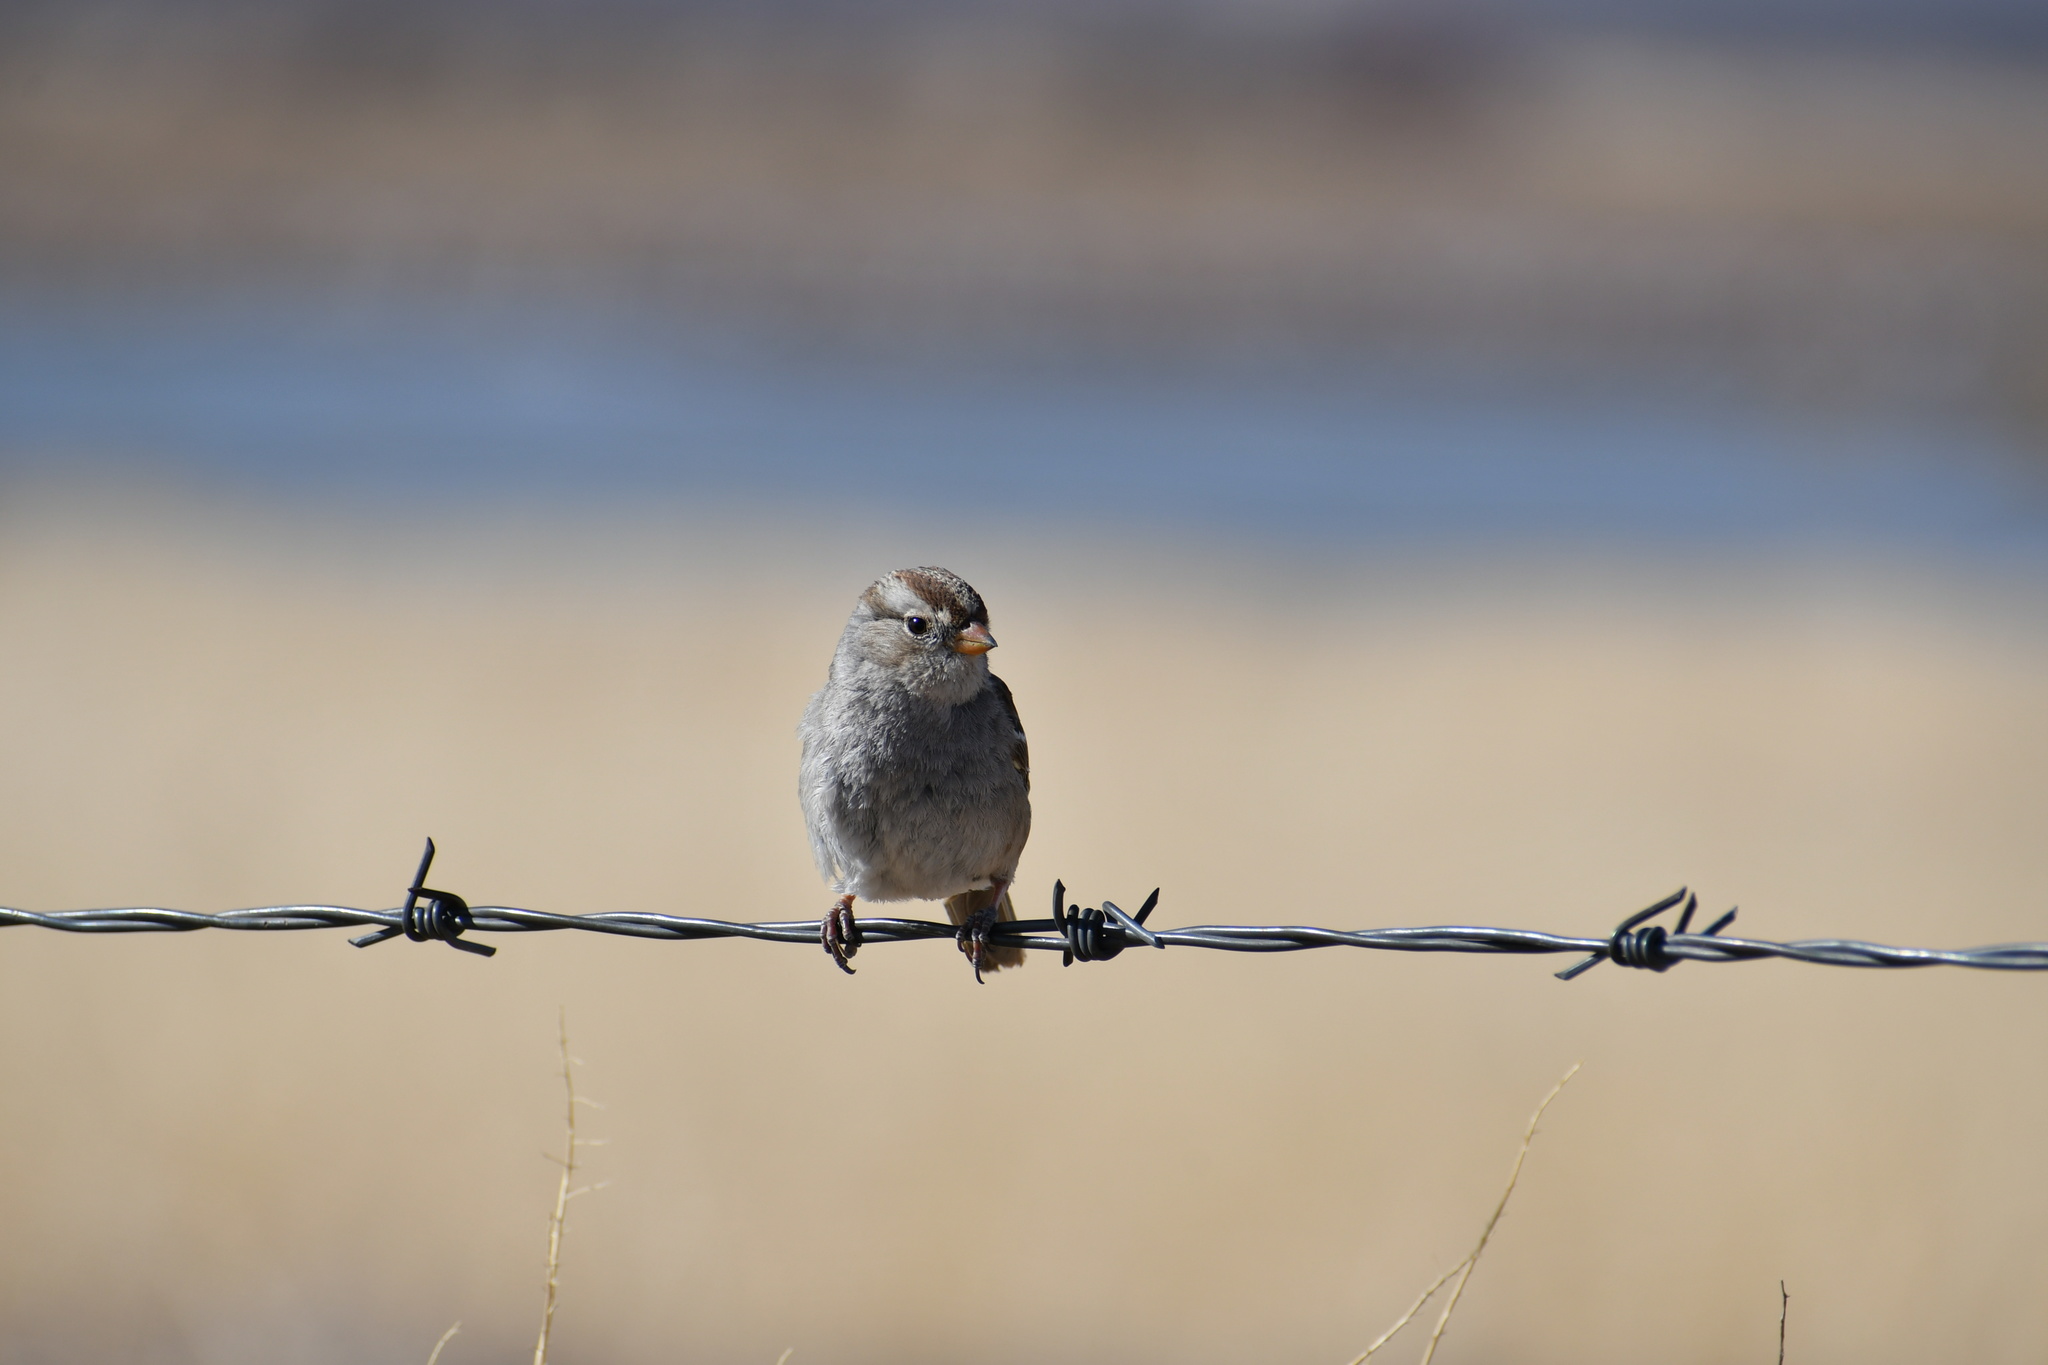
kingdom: Animalia
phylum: Chordata
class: Aves
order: Passeriformes
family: Passerellidae
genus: Zonotrichia
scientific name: Zonotrichia leucophrys
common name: White-crowned sparrow
